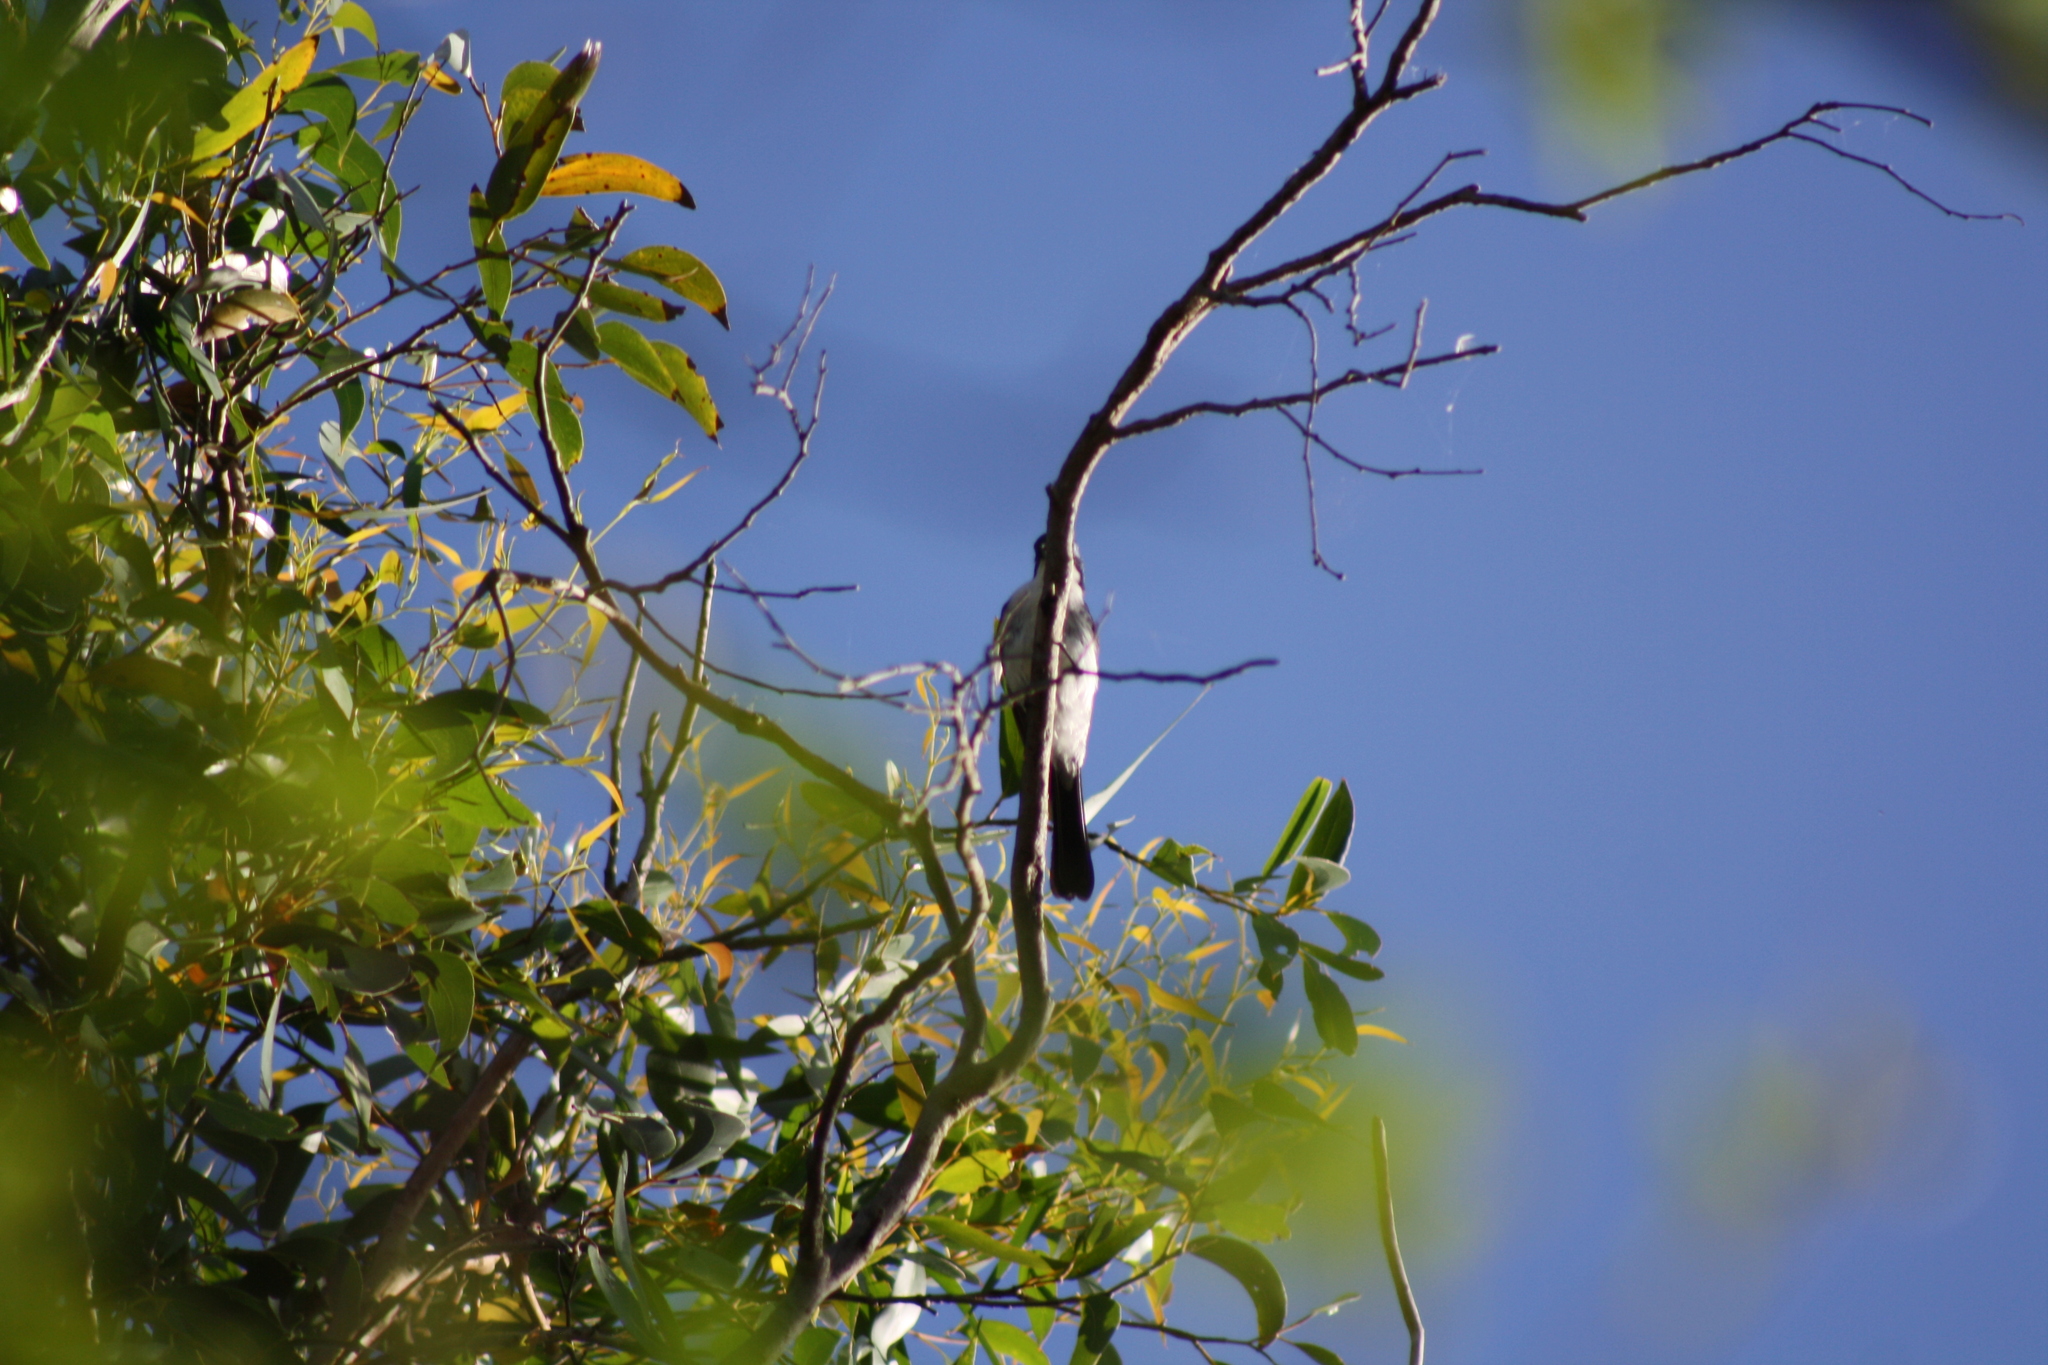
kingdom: Animalia
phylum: Chordata
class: Aves
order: Passeriformes
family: Monarchidae
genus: Myiagra
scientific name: Myiagra inquieta
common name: Restless flycatcher
